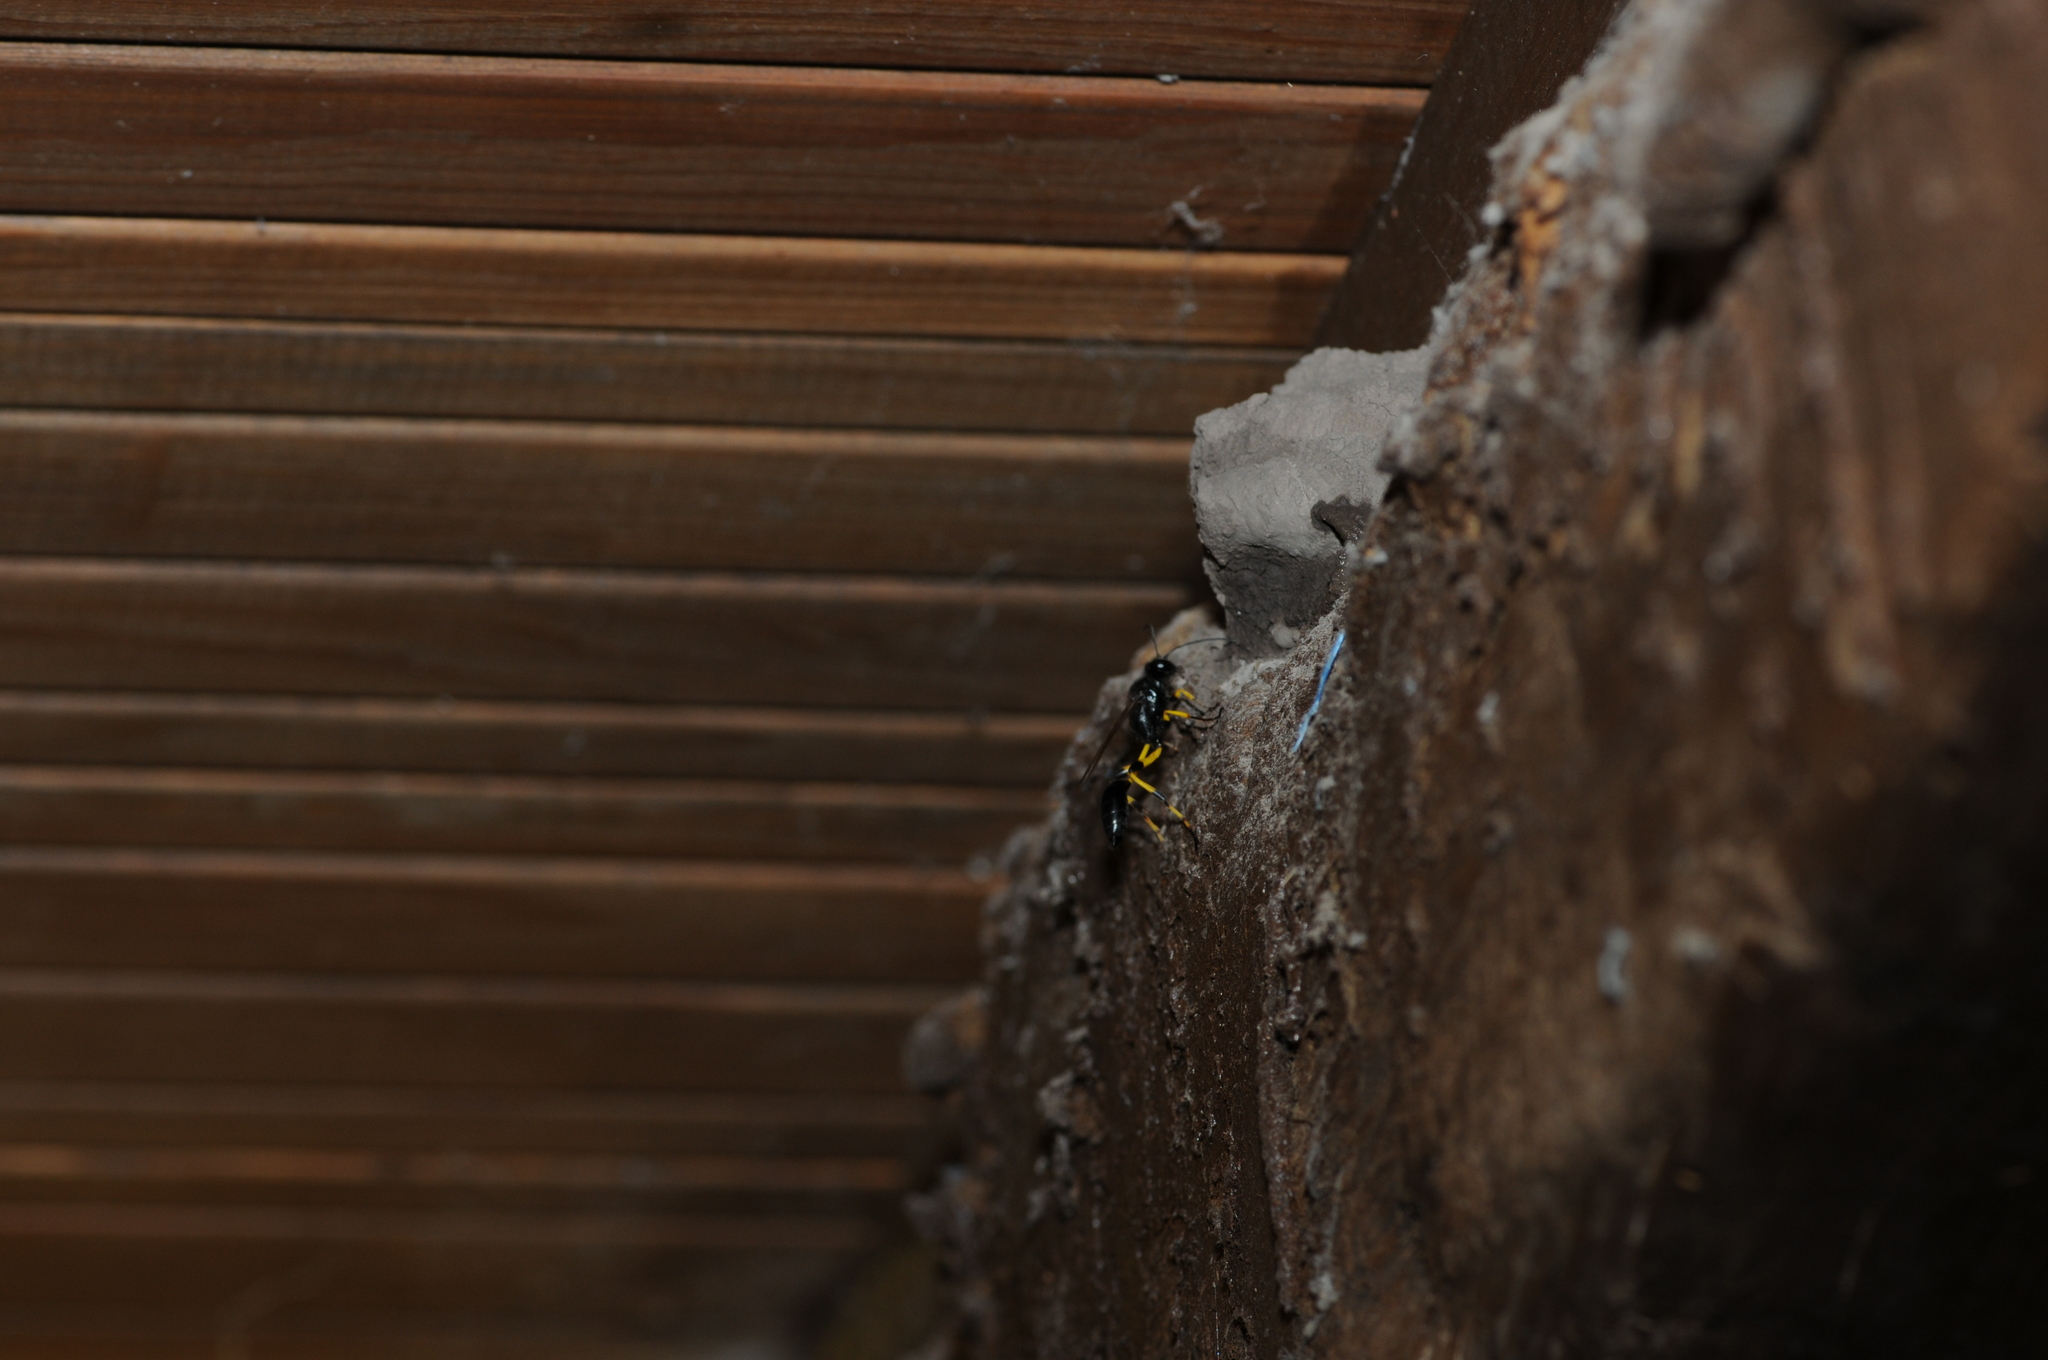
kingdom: Animalia
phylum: Arthropoda
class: Insecta
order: Hymenoptera
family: Sphecidae
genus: Sceliphron
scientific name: Sceliphron spirifex
